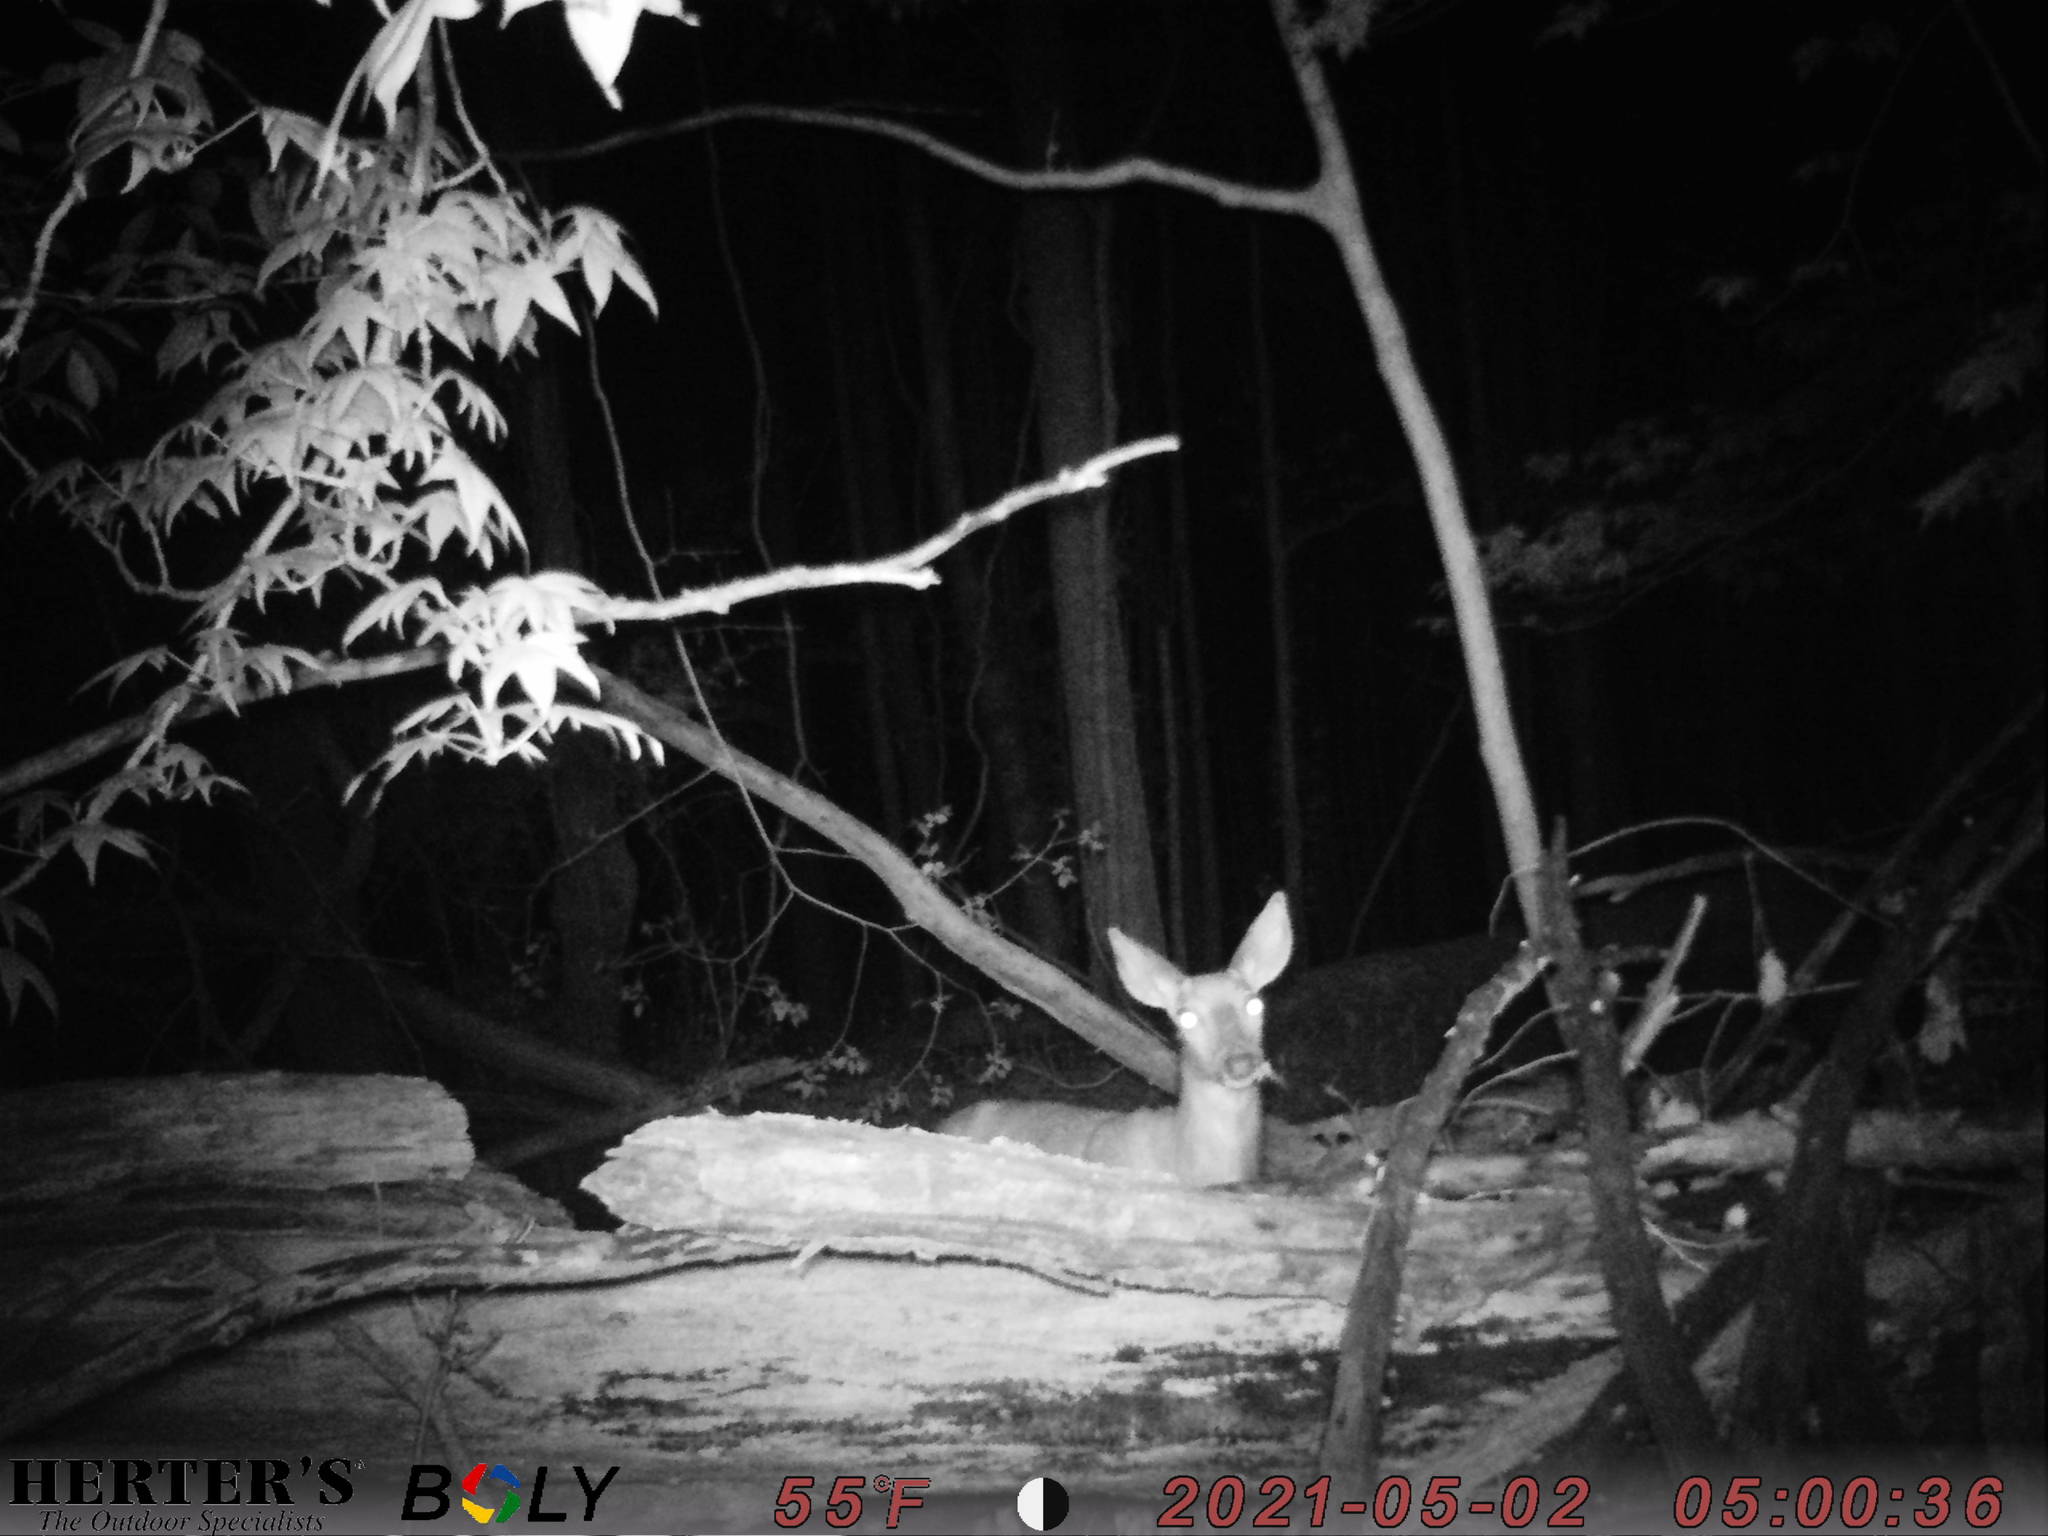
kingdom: Animalia
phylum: Chordata
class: Mammalia
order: Artiodactyla
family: Cervidae
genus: Odocoileus
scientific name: Odocoileus virginianus
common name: White-tailed deer
